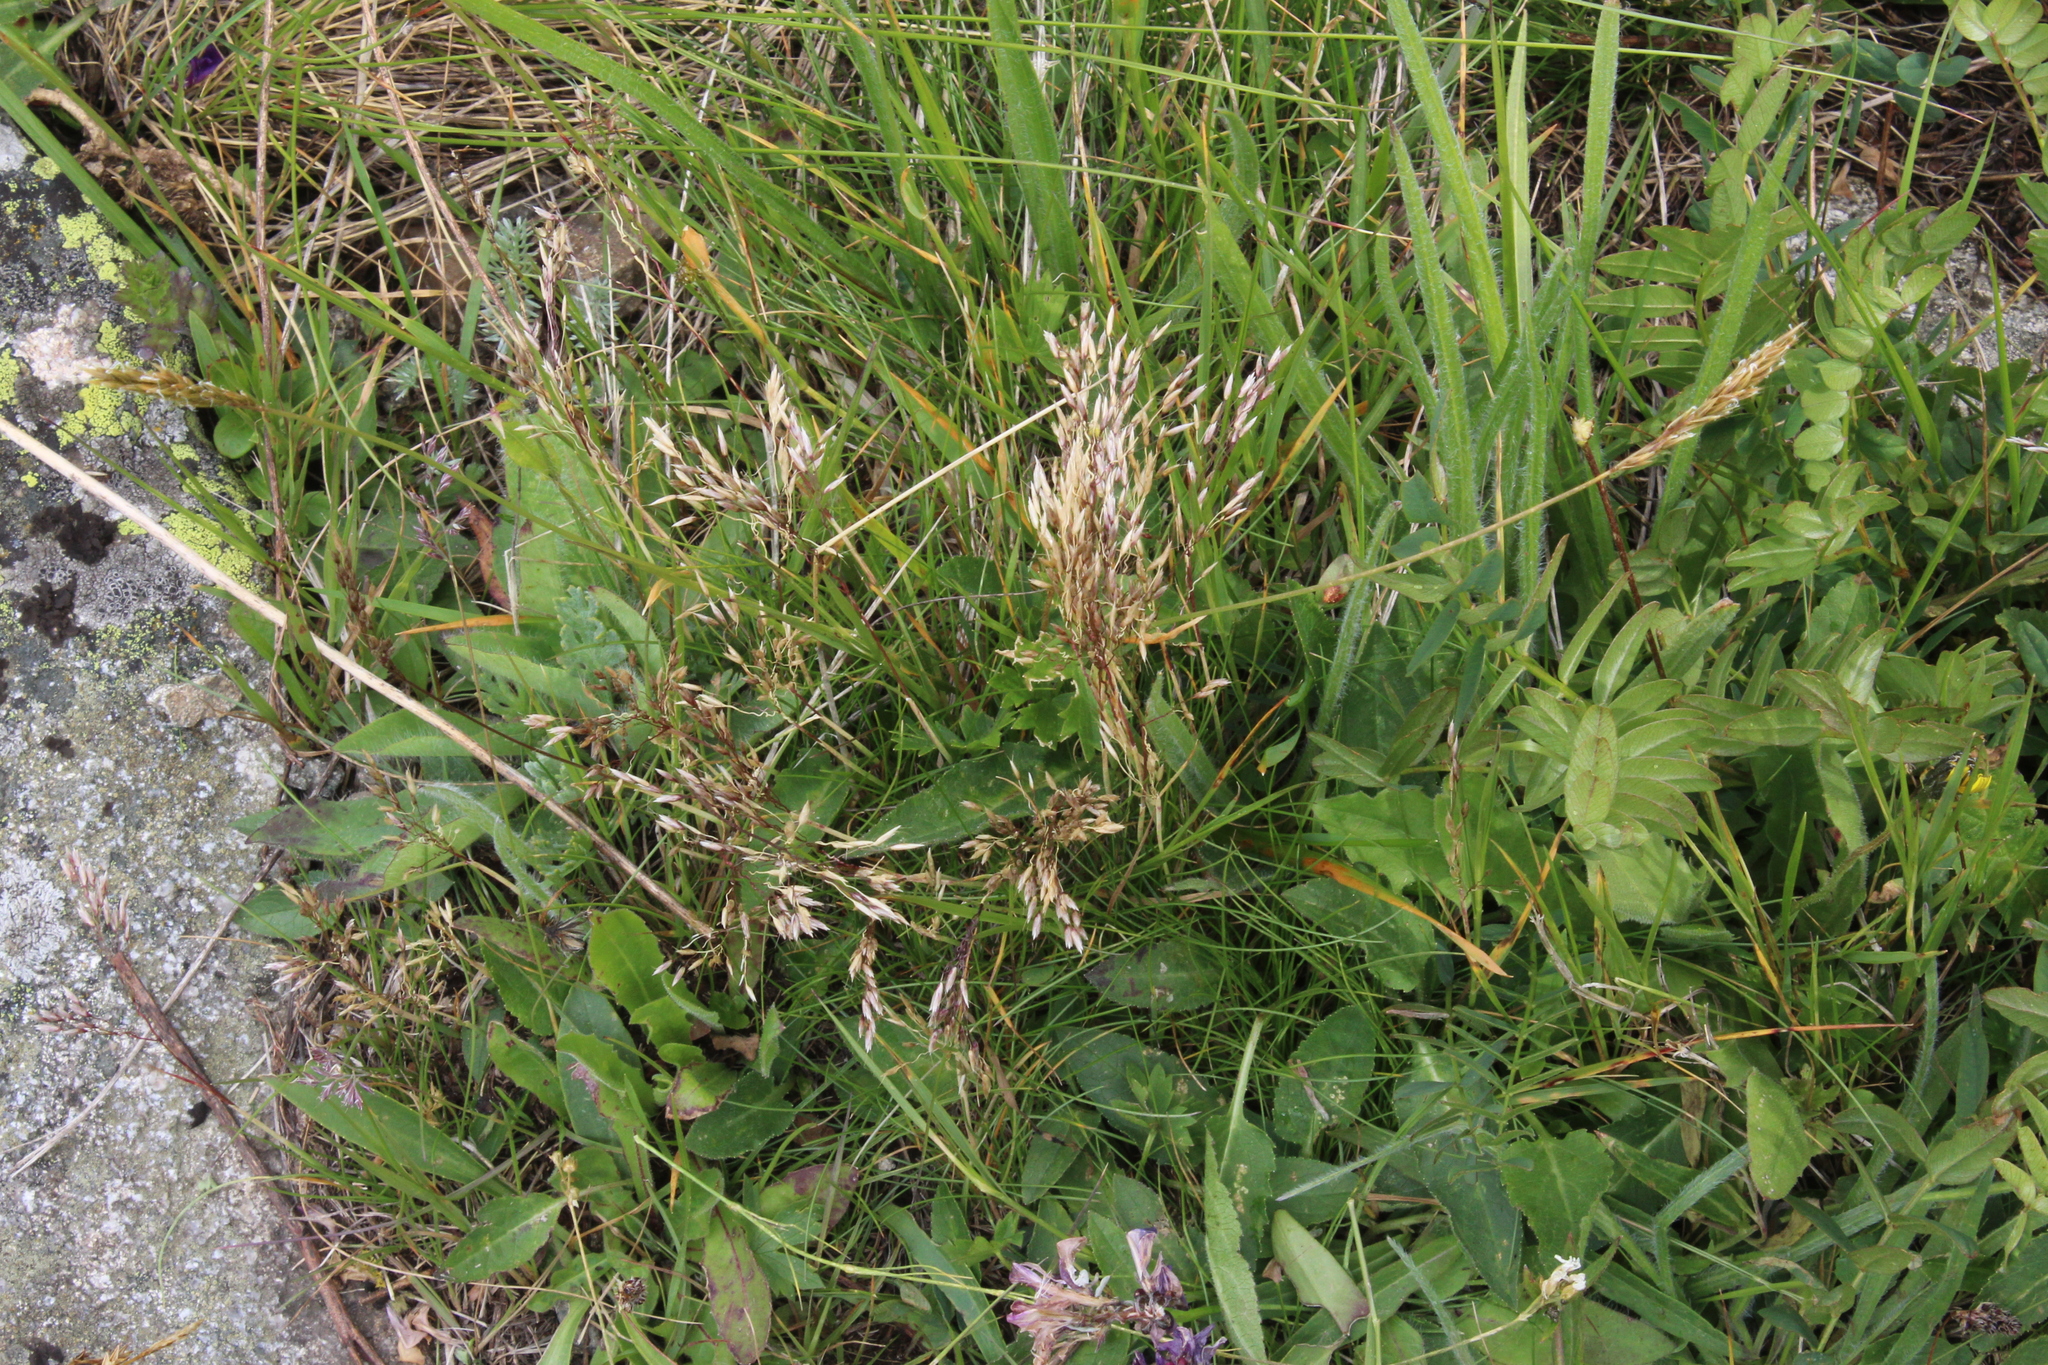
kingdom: Plantae
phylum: Tracheophyta
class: Liliopsida
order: Poales
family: Poaceae
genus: Avenella
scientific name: Avenella flexuosa
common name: Wavy hairgrass
